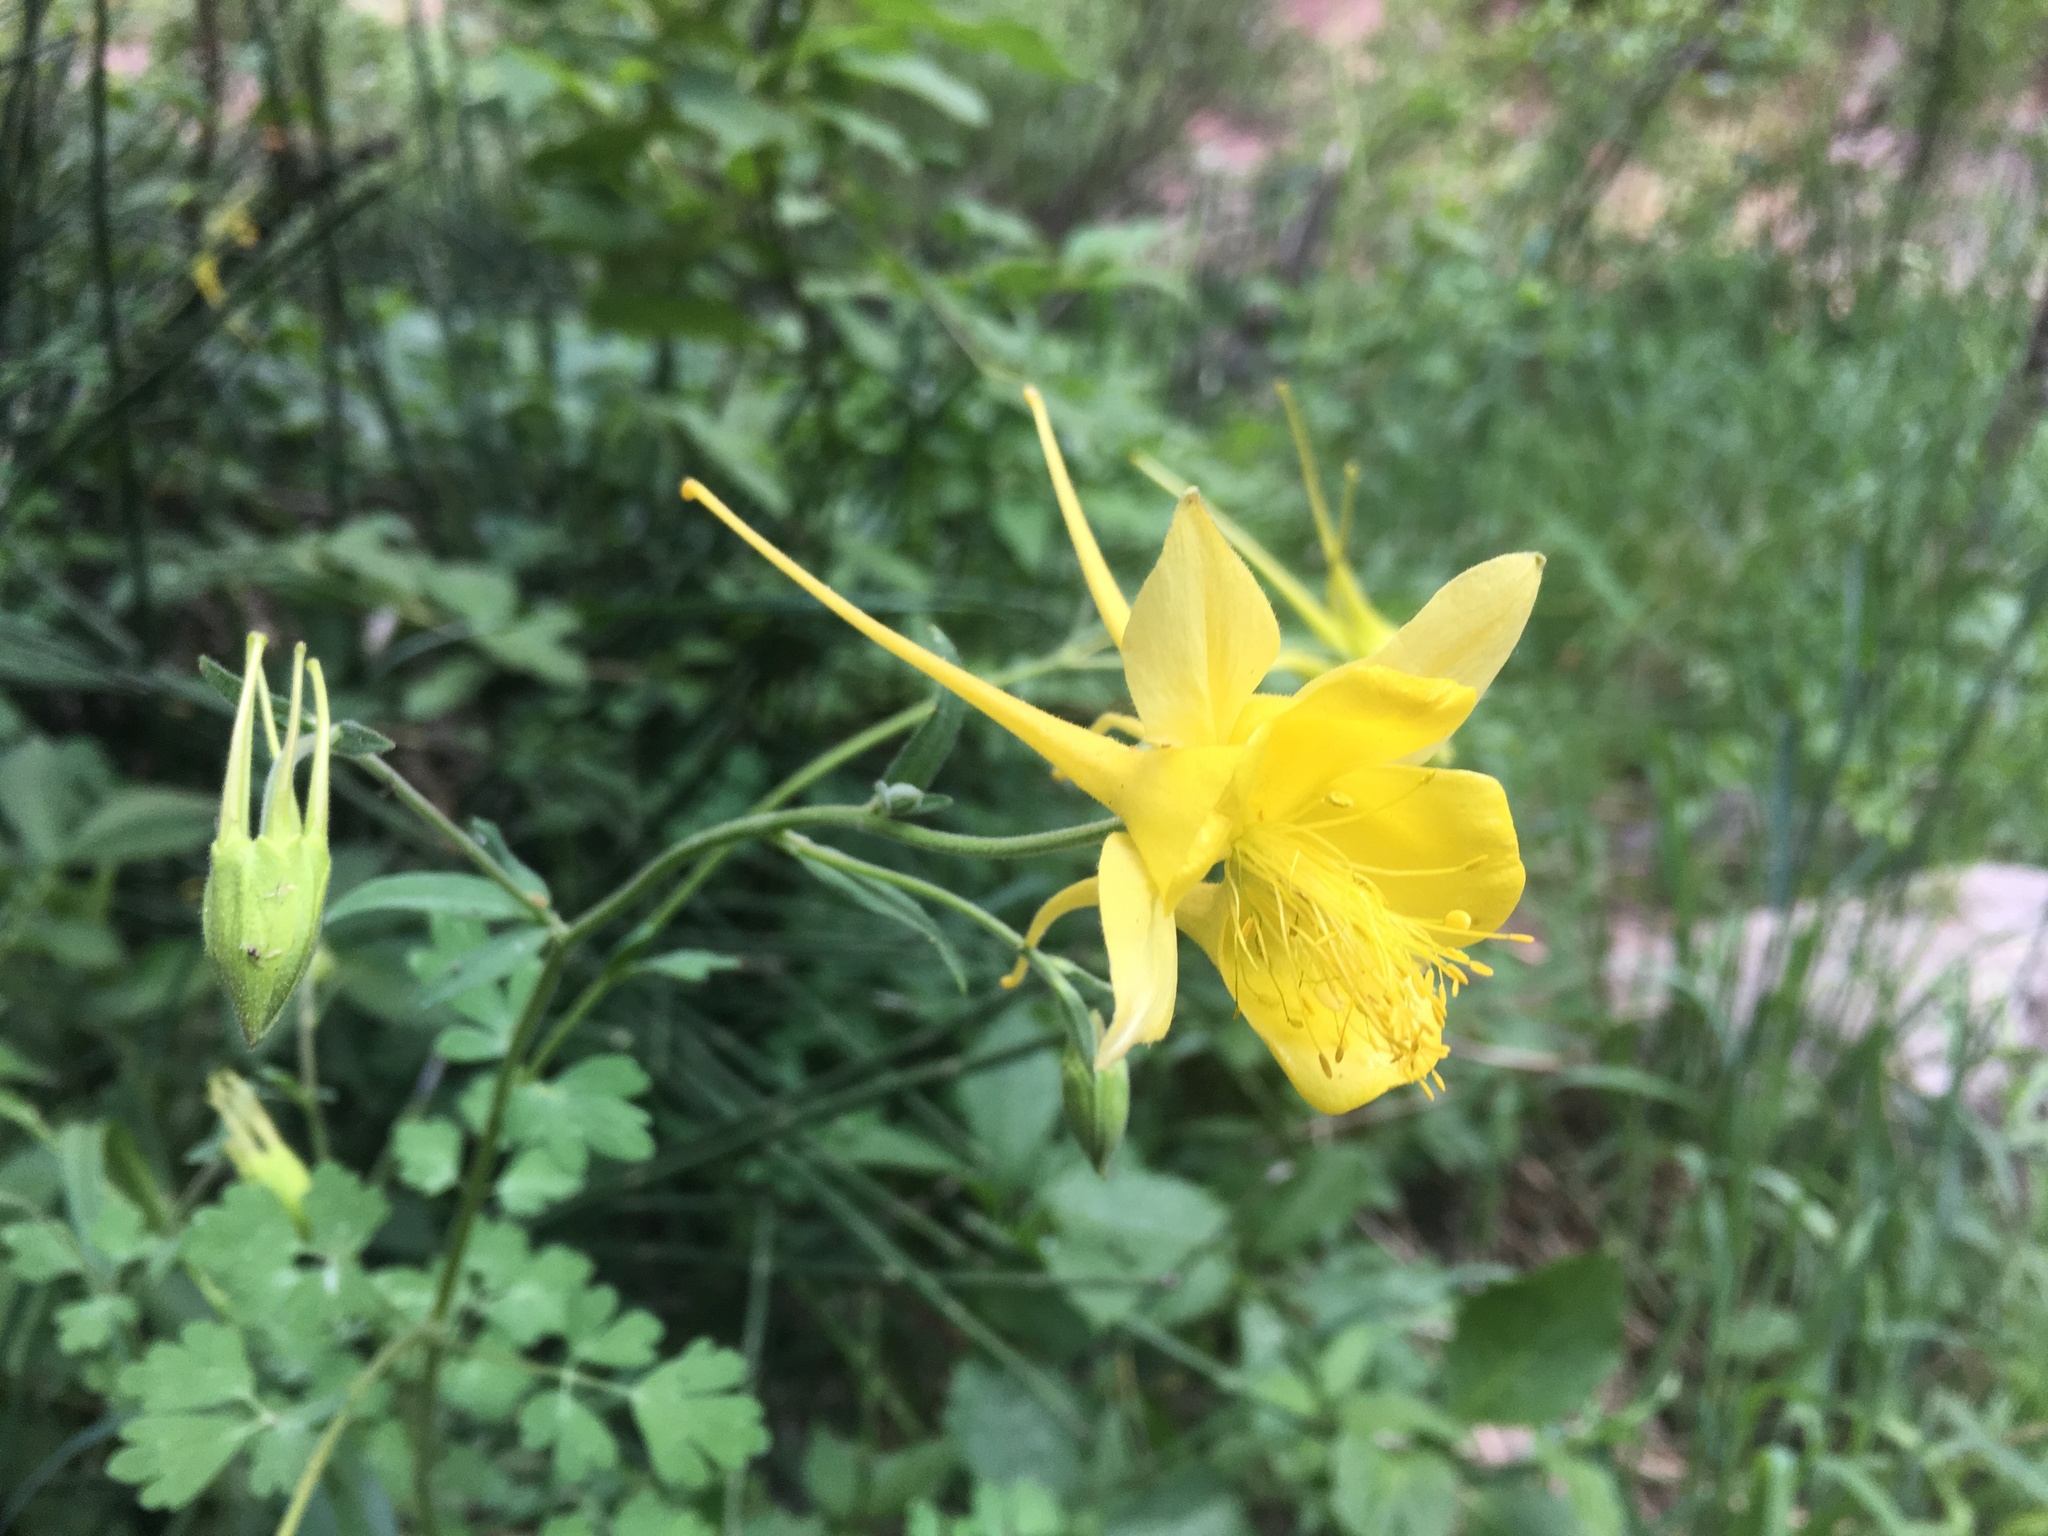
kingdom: Plantae
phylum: Tracheophyta
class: Magnoliopsida
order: Ranunculales
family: Ranunculaceae
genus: Aquilegia
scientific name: Aquilegia chrysantha
